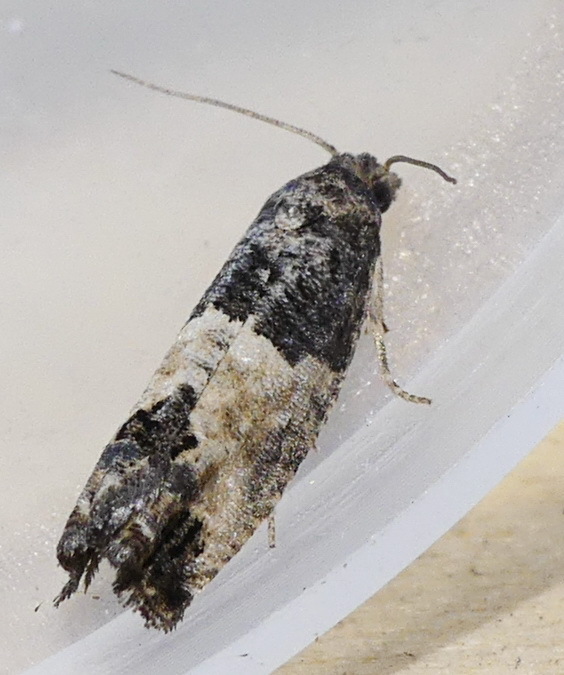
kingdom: Animalia
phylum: Arthropoda
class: Insecta
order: Lepidoptera
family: Tortricidae
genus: Spilonota
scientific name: Spilonota ocellana
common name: Bud moth
